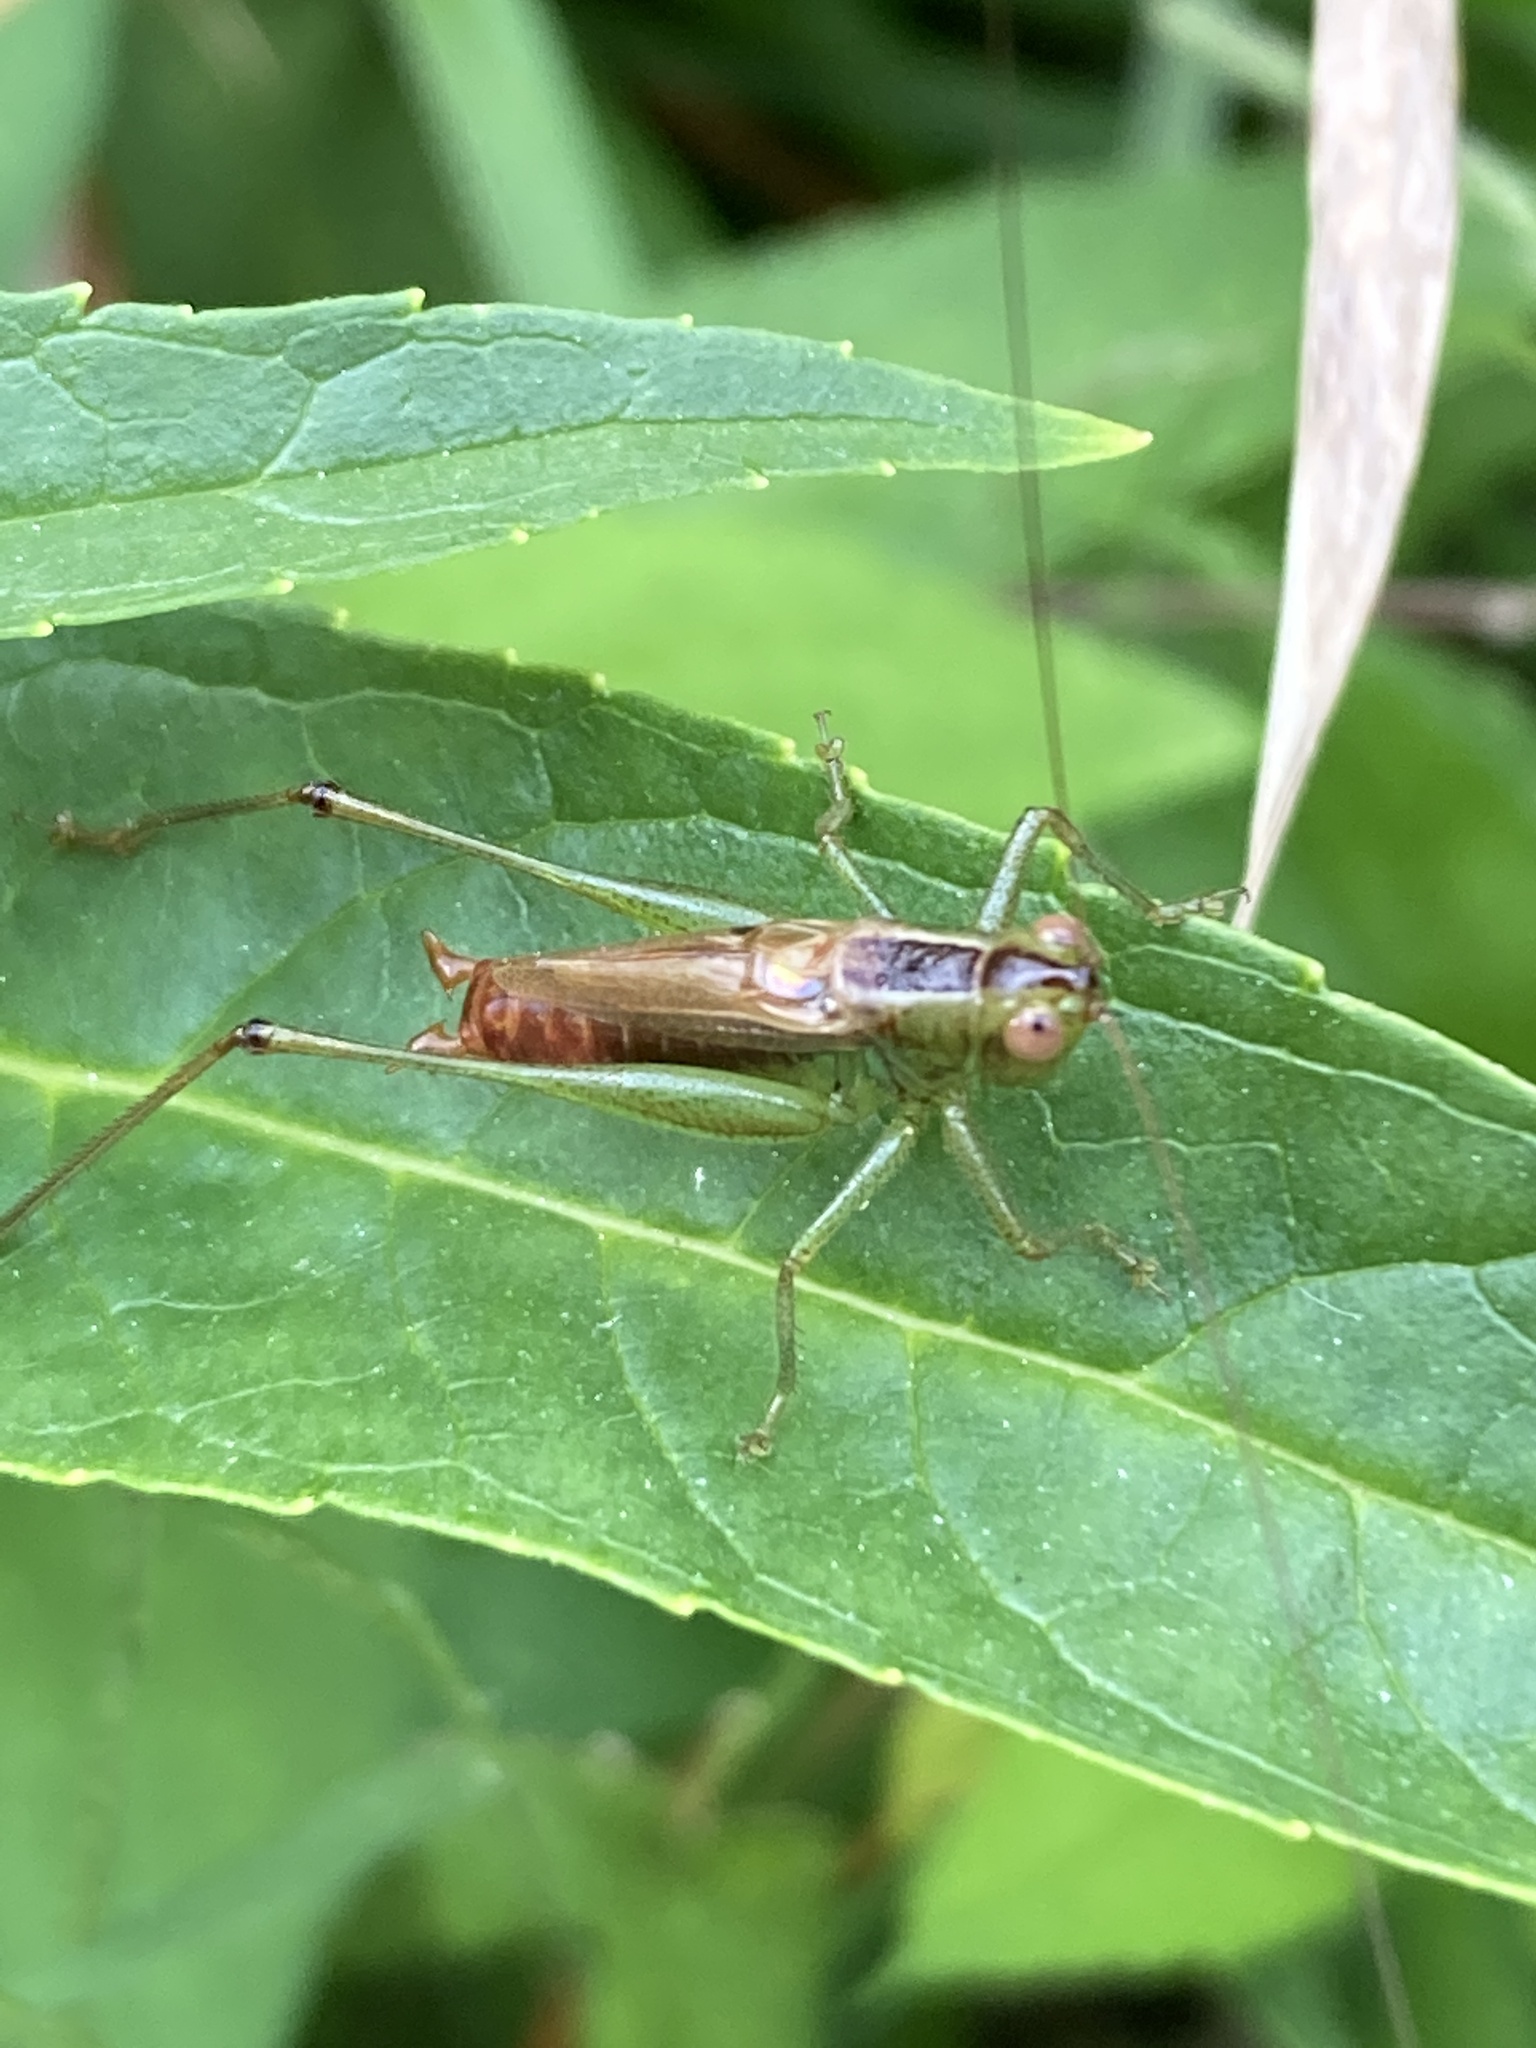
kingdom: Animalia
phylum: Arthropoda
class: Insecta
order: Orthoptera
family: Tettigoniidae
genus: Conocephalus
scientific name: Conocephalus brevipennis
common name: Short-winged meadow katydid
